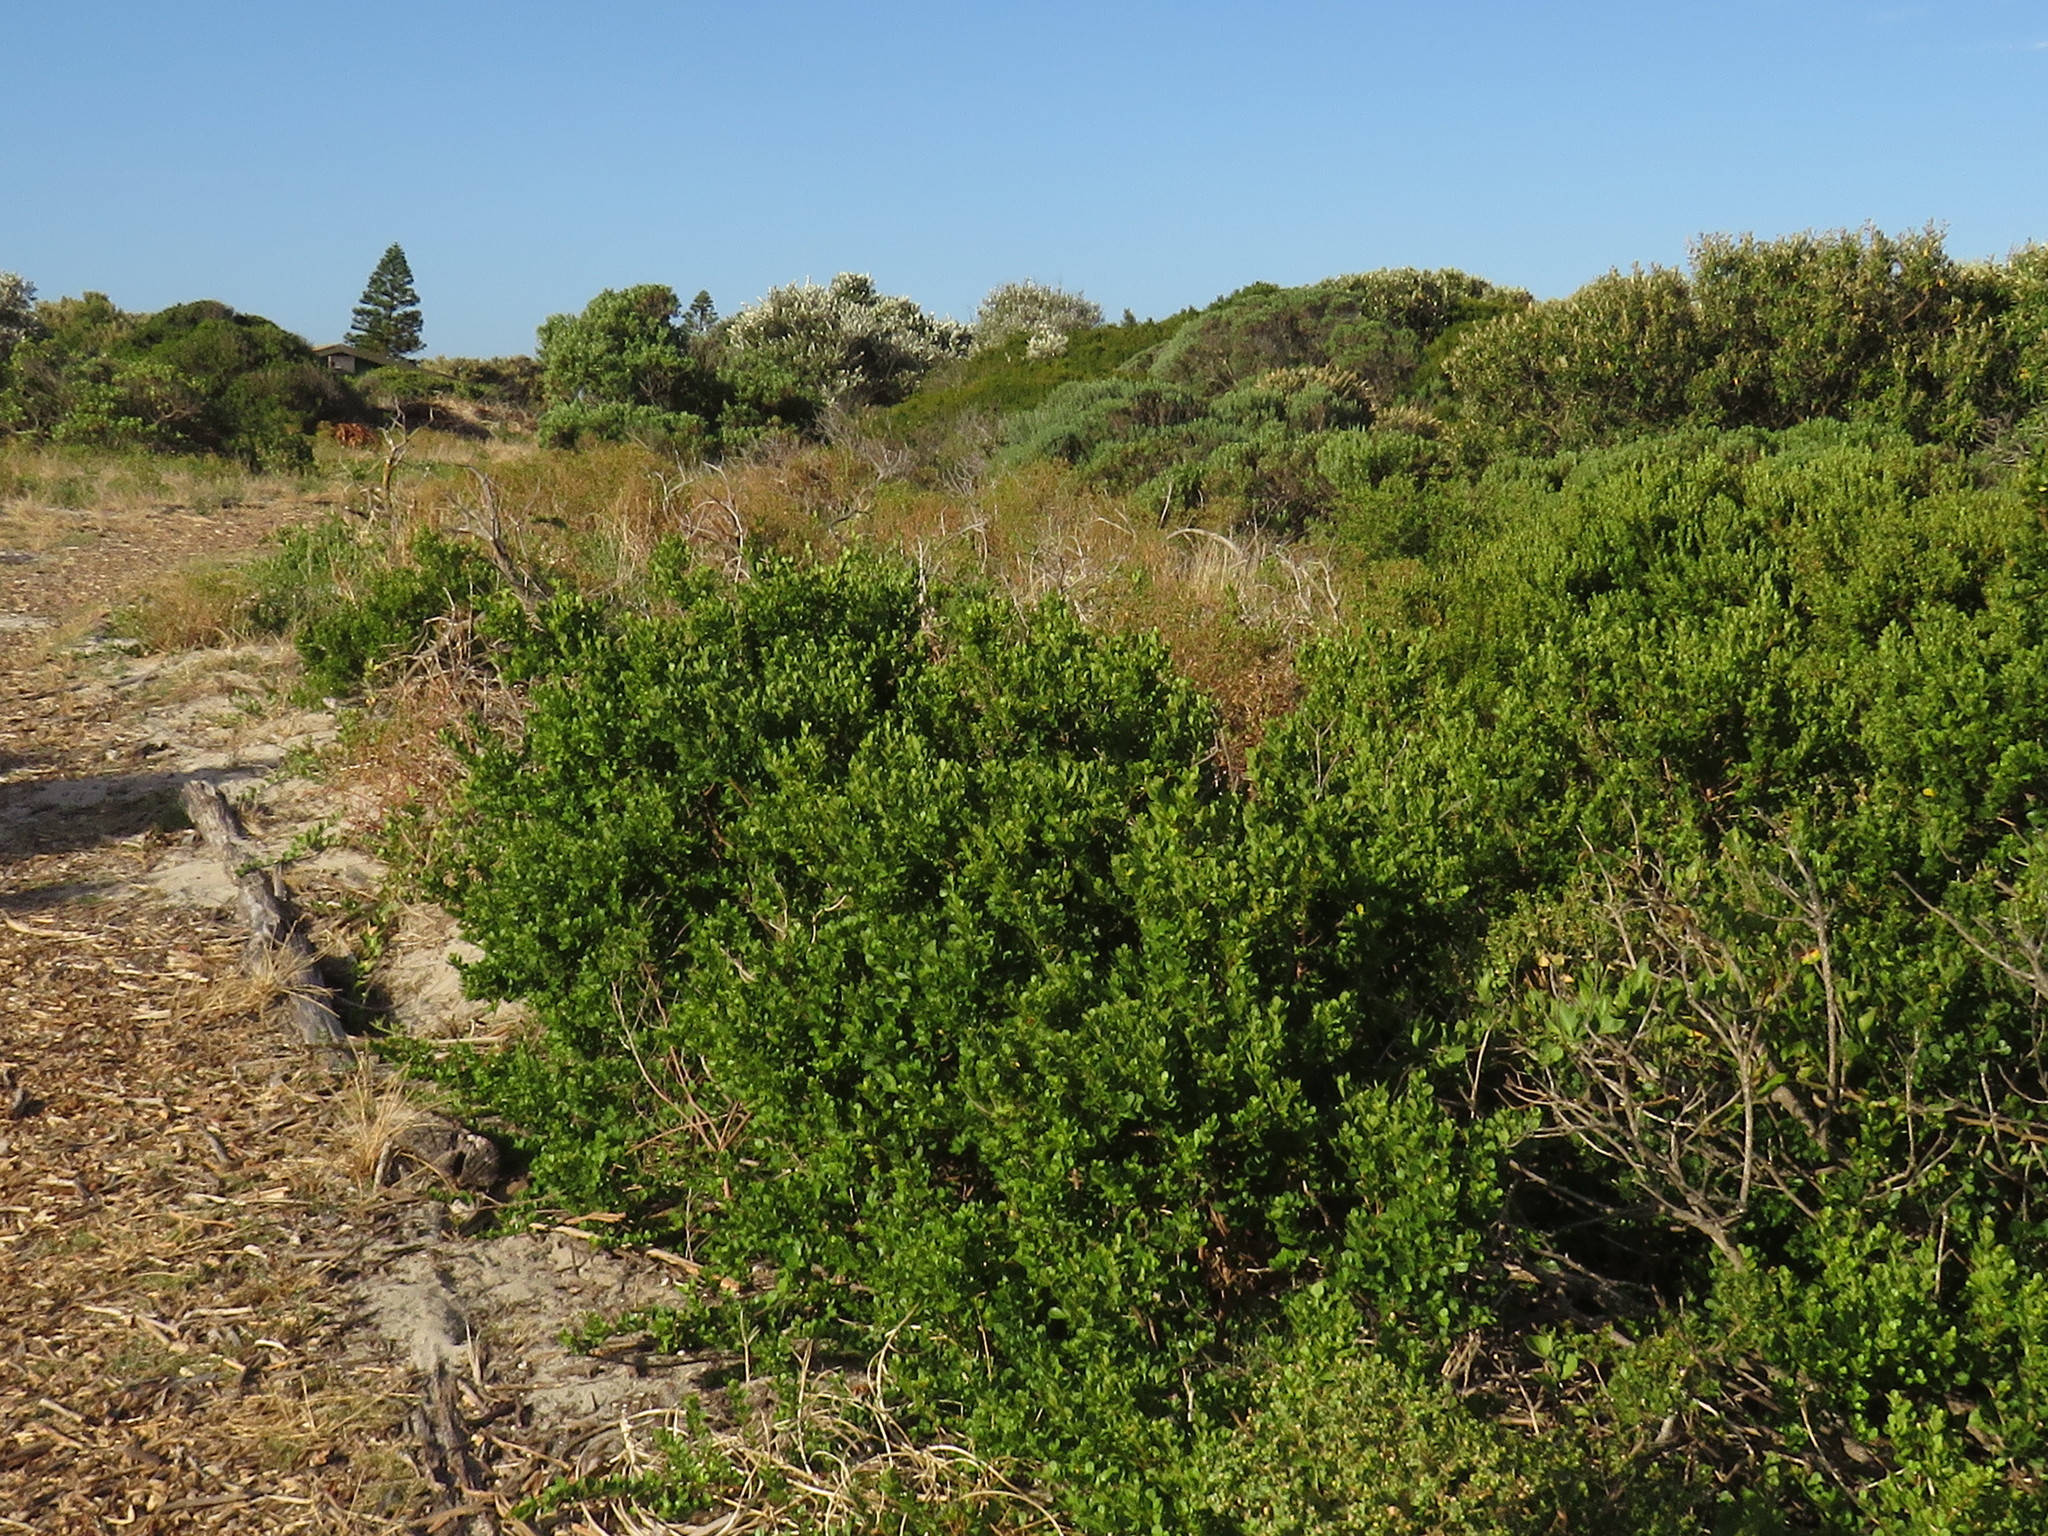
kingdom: Plantae
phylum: Tracheophyta
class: Magnoliopsida
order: Sapindales
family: Anacardiaceae
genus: Searsia
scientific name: Searsia crenata
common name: Crowberry
